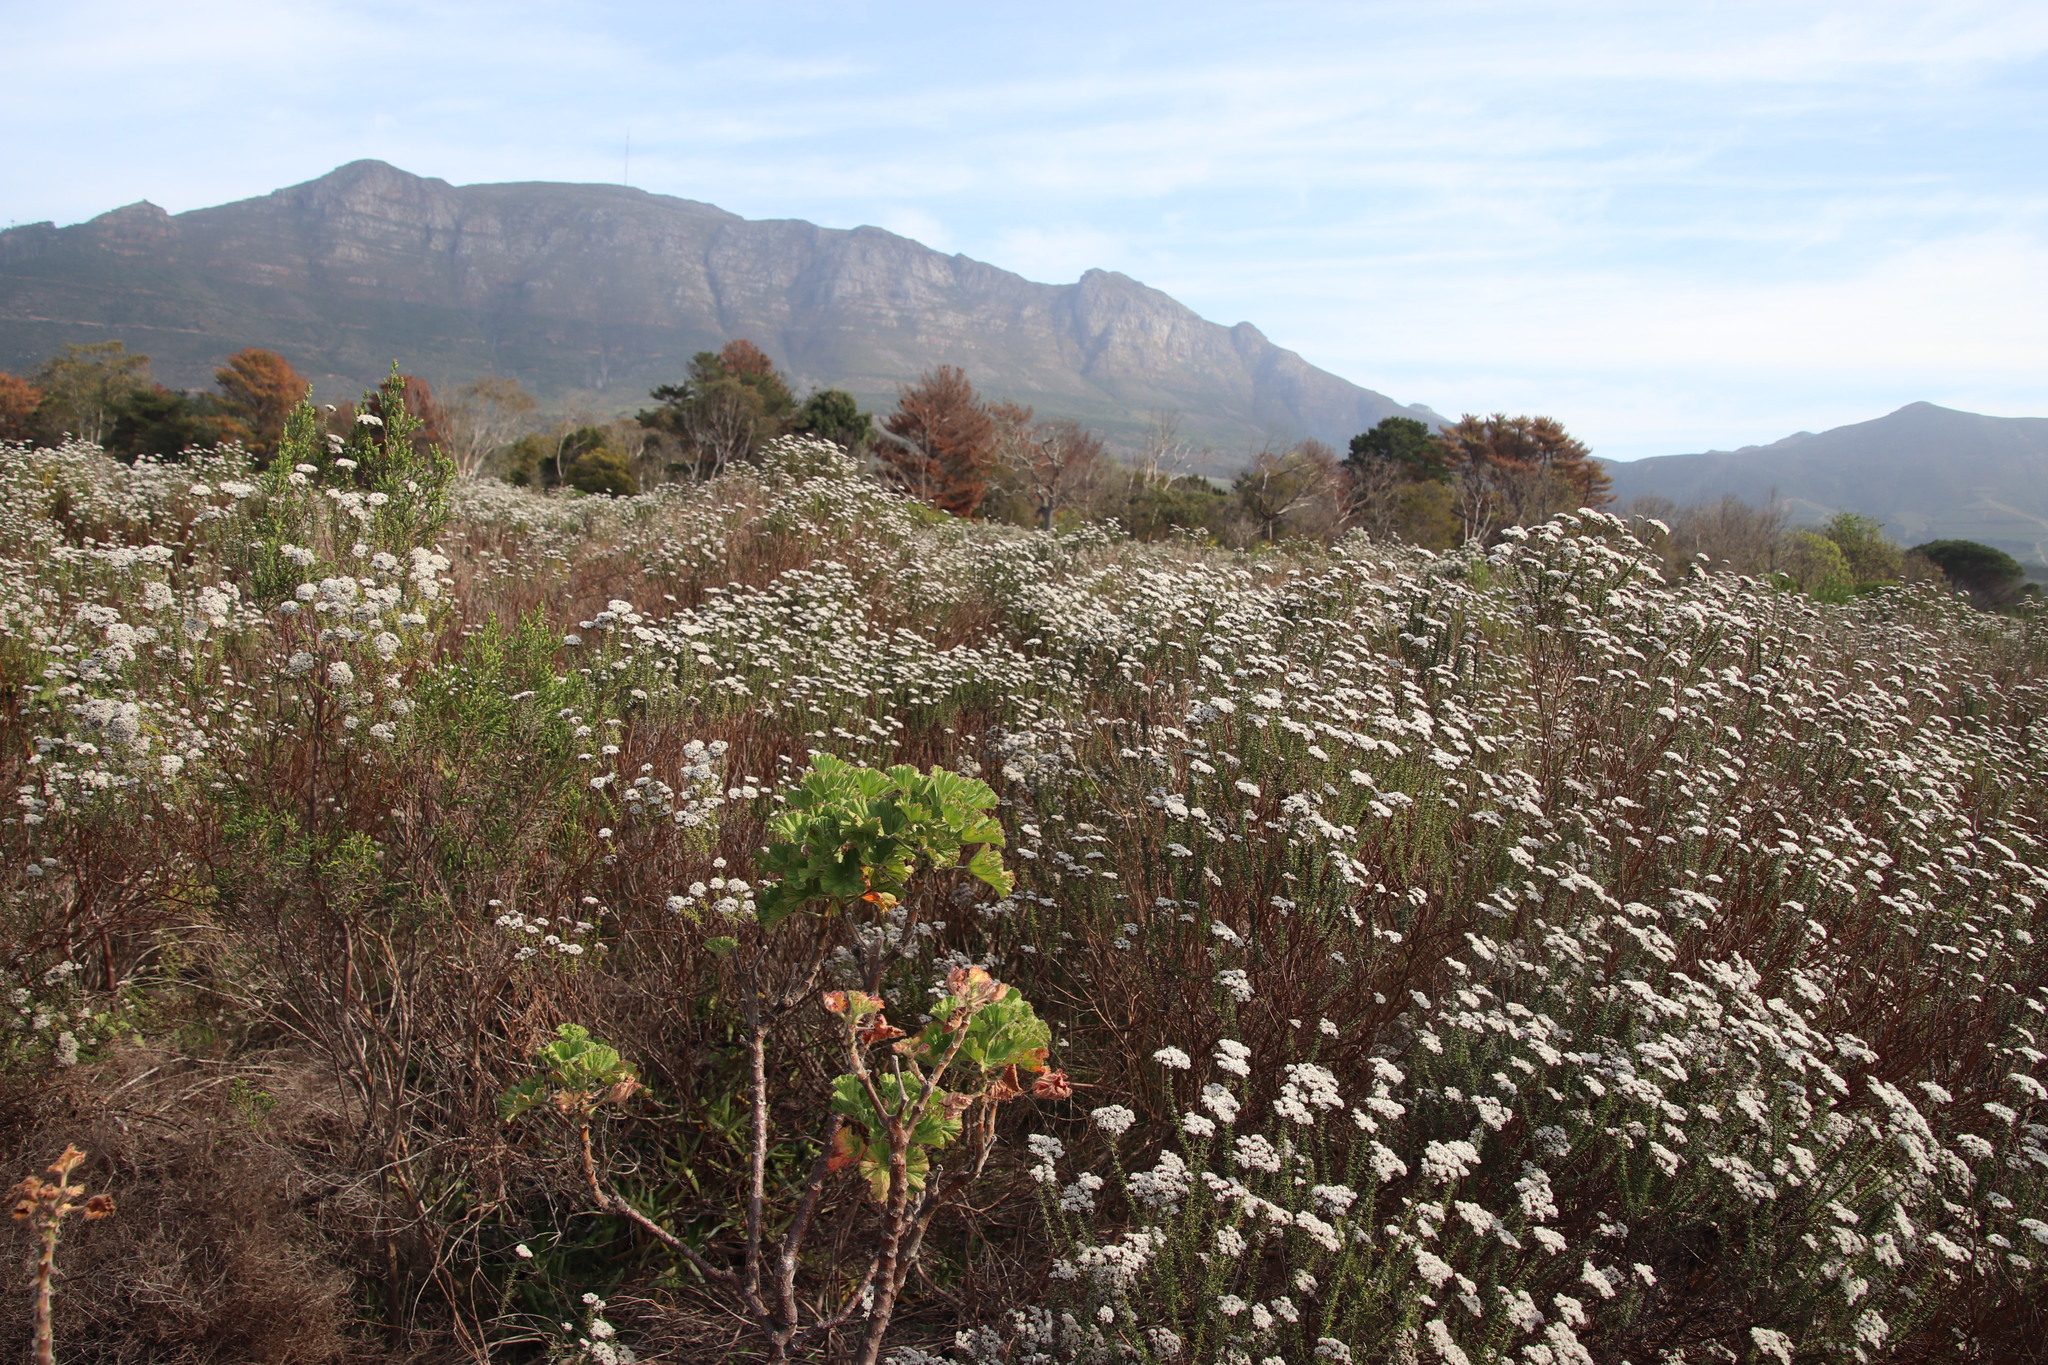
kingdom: Plantae
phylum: Tracheophyta
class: Magnoliopsida
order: Asterales
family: Asteraceae
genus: Metalasia
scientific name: Metalasia densa
